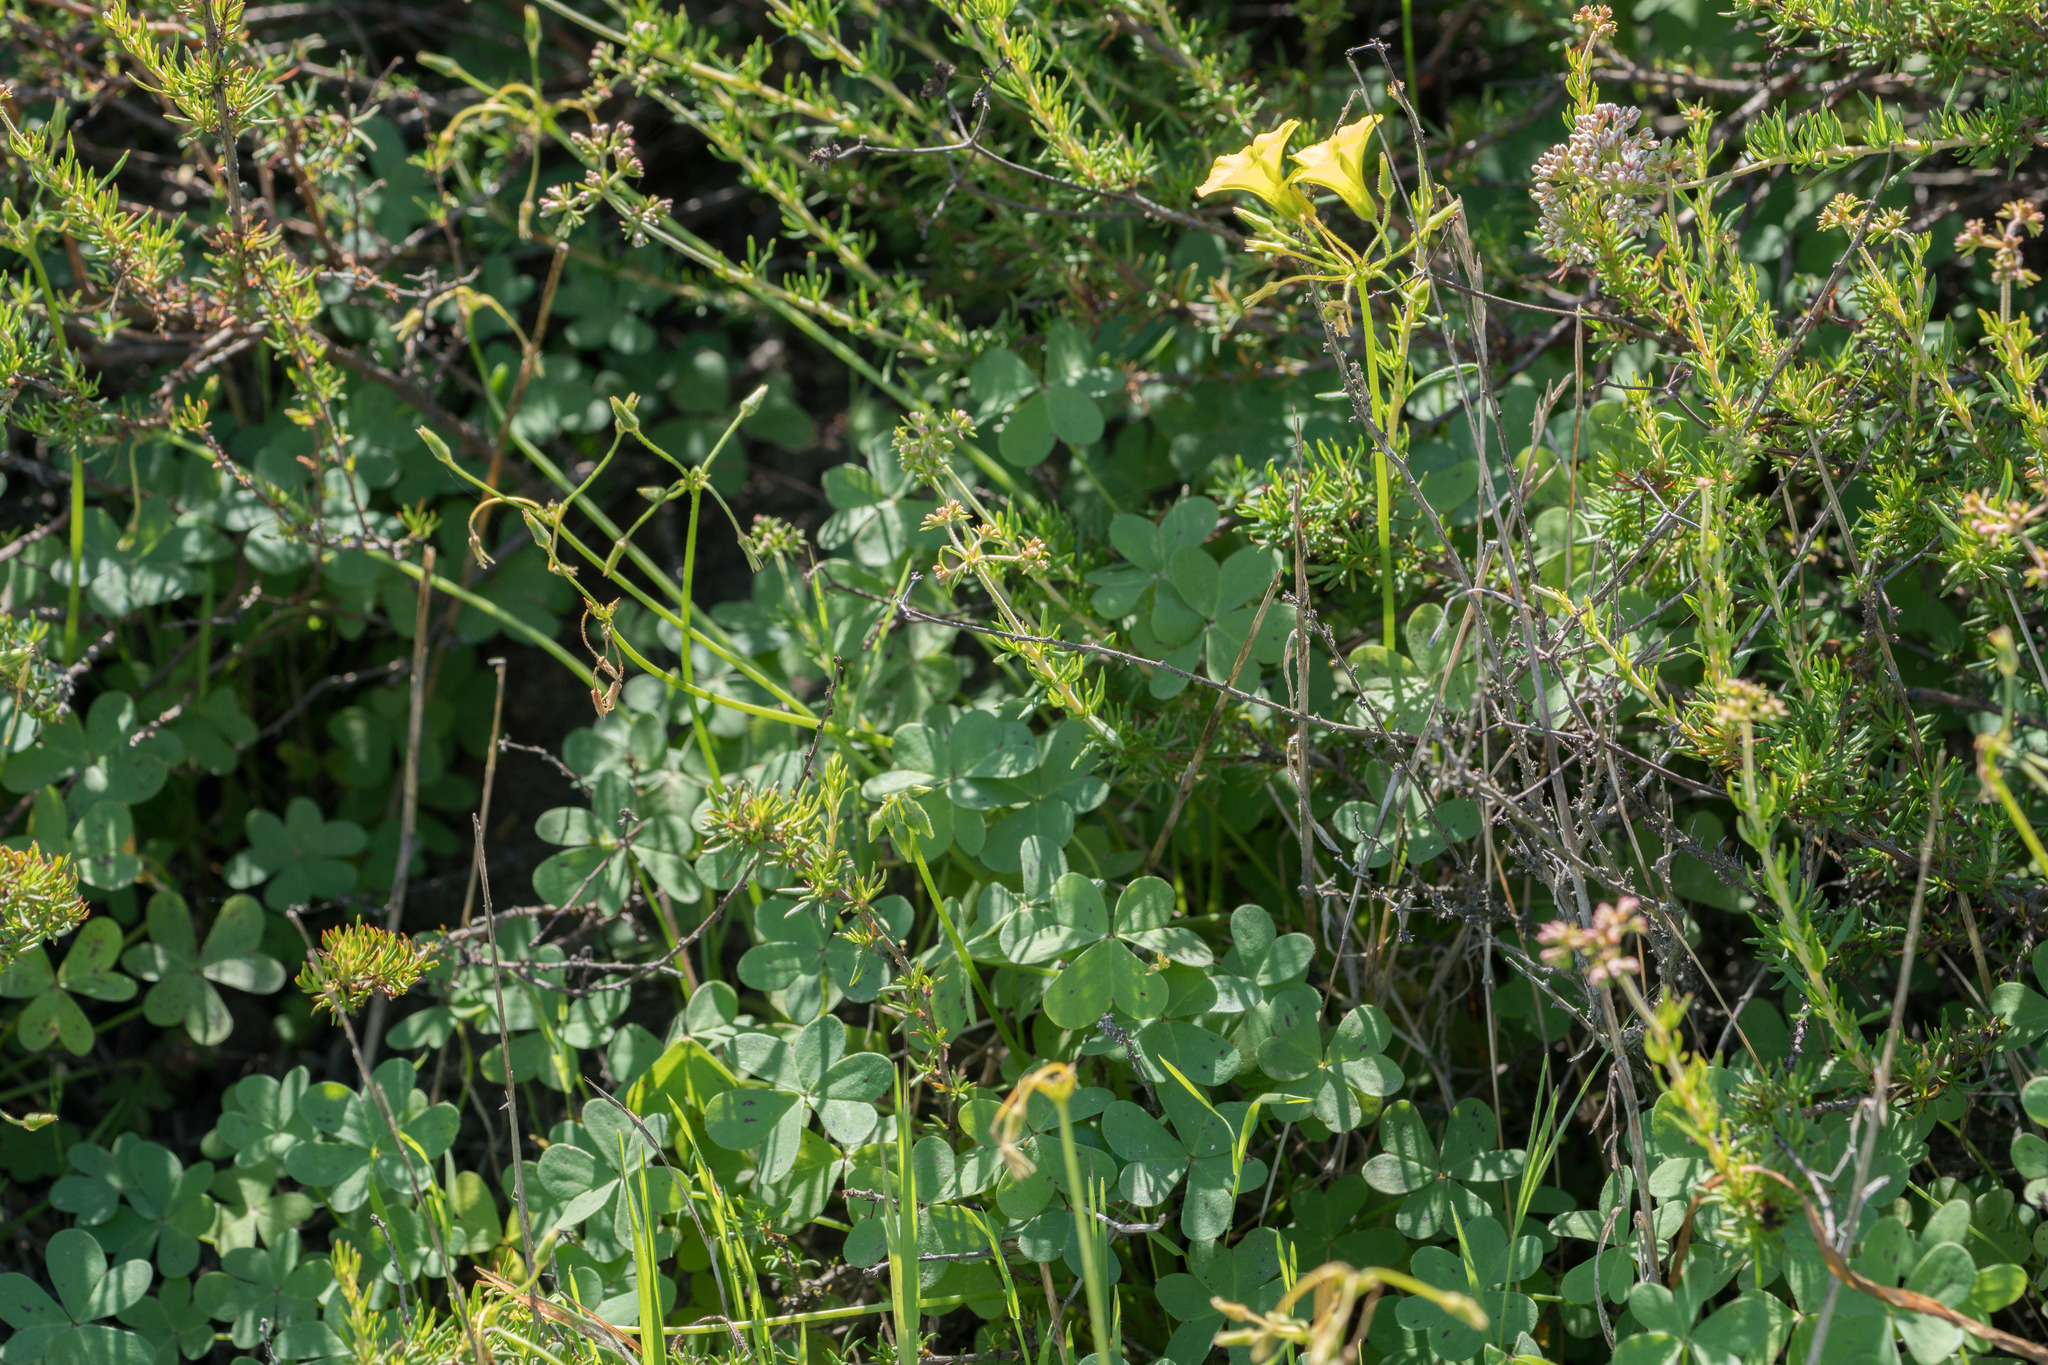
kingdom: Plantae
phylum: Tracheophyta
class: Magnoliopsida
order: Oxalidales
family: Oxalidaceae
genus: Oxalis
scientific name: Oxalis pes-caprae
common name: Bermuda-buttercup
